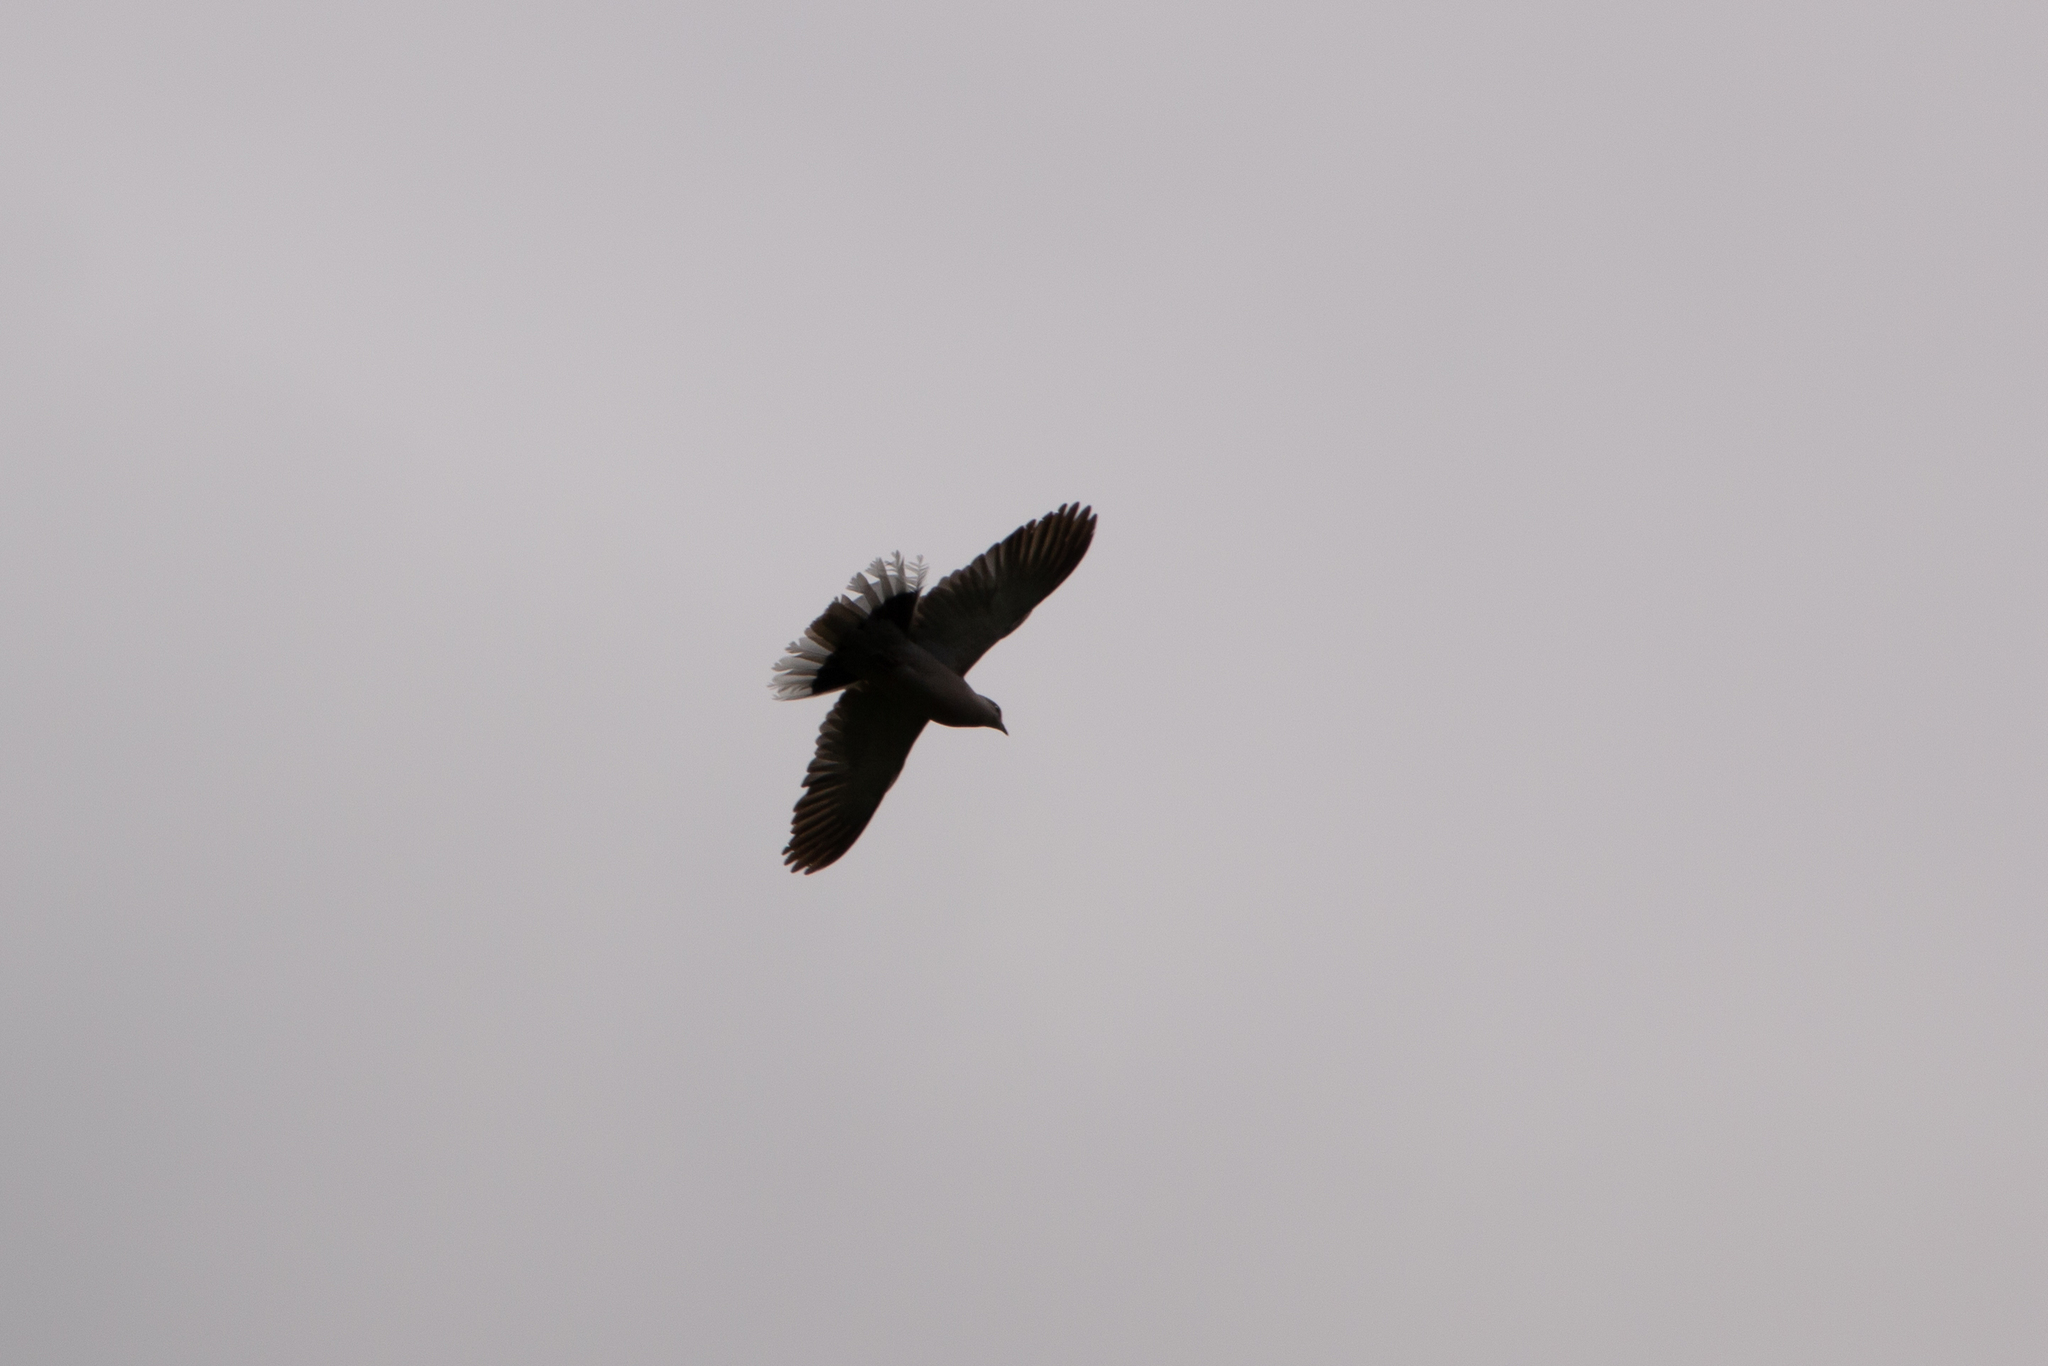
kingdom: Animalia
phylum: Chordata
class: Aves
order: Columbiformes
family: Columbidae
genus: Streptopelia
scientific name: Streptopelia decaocto
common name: Eurasian collared dove
